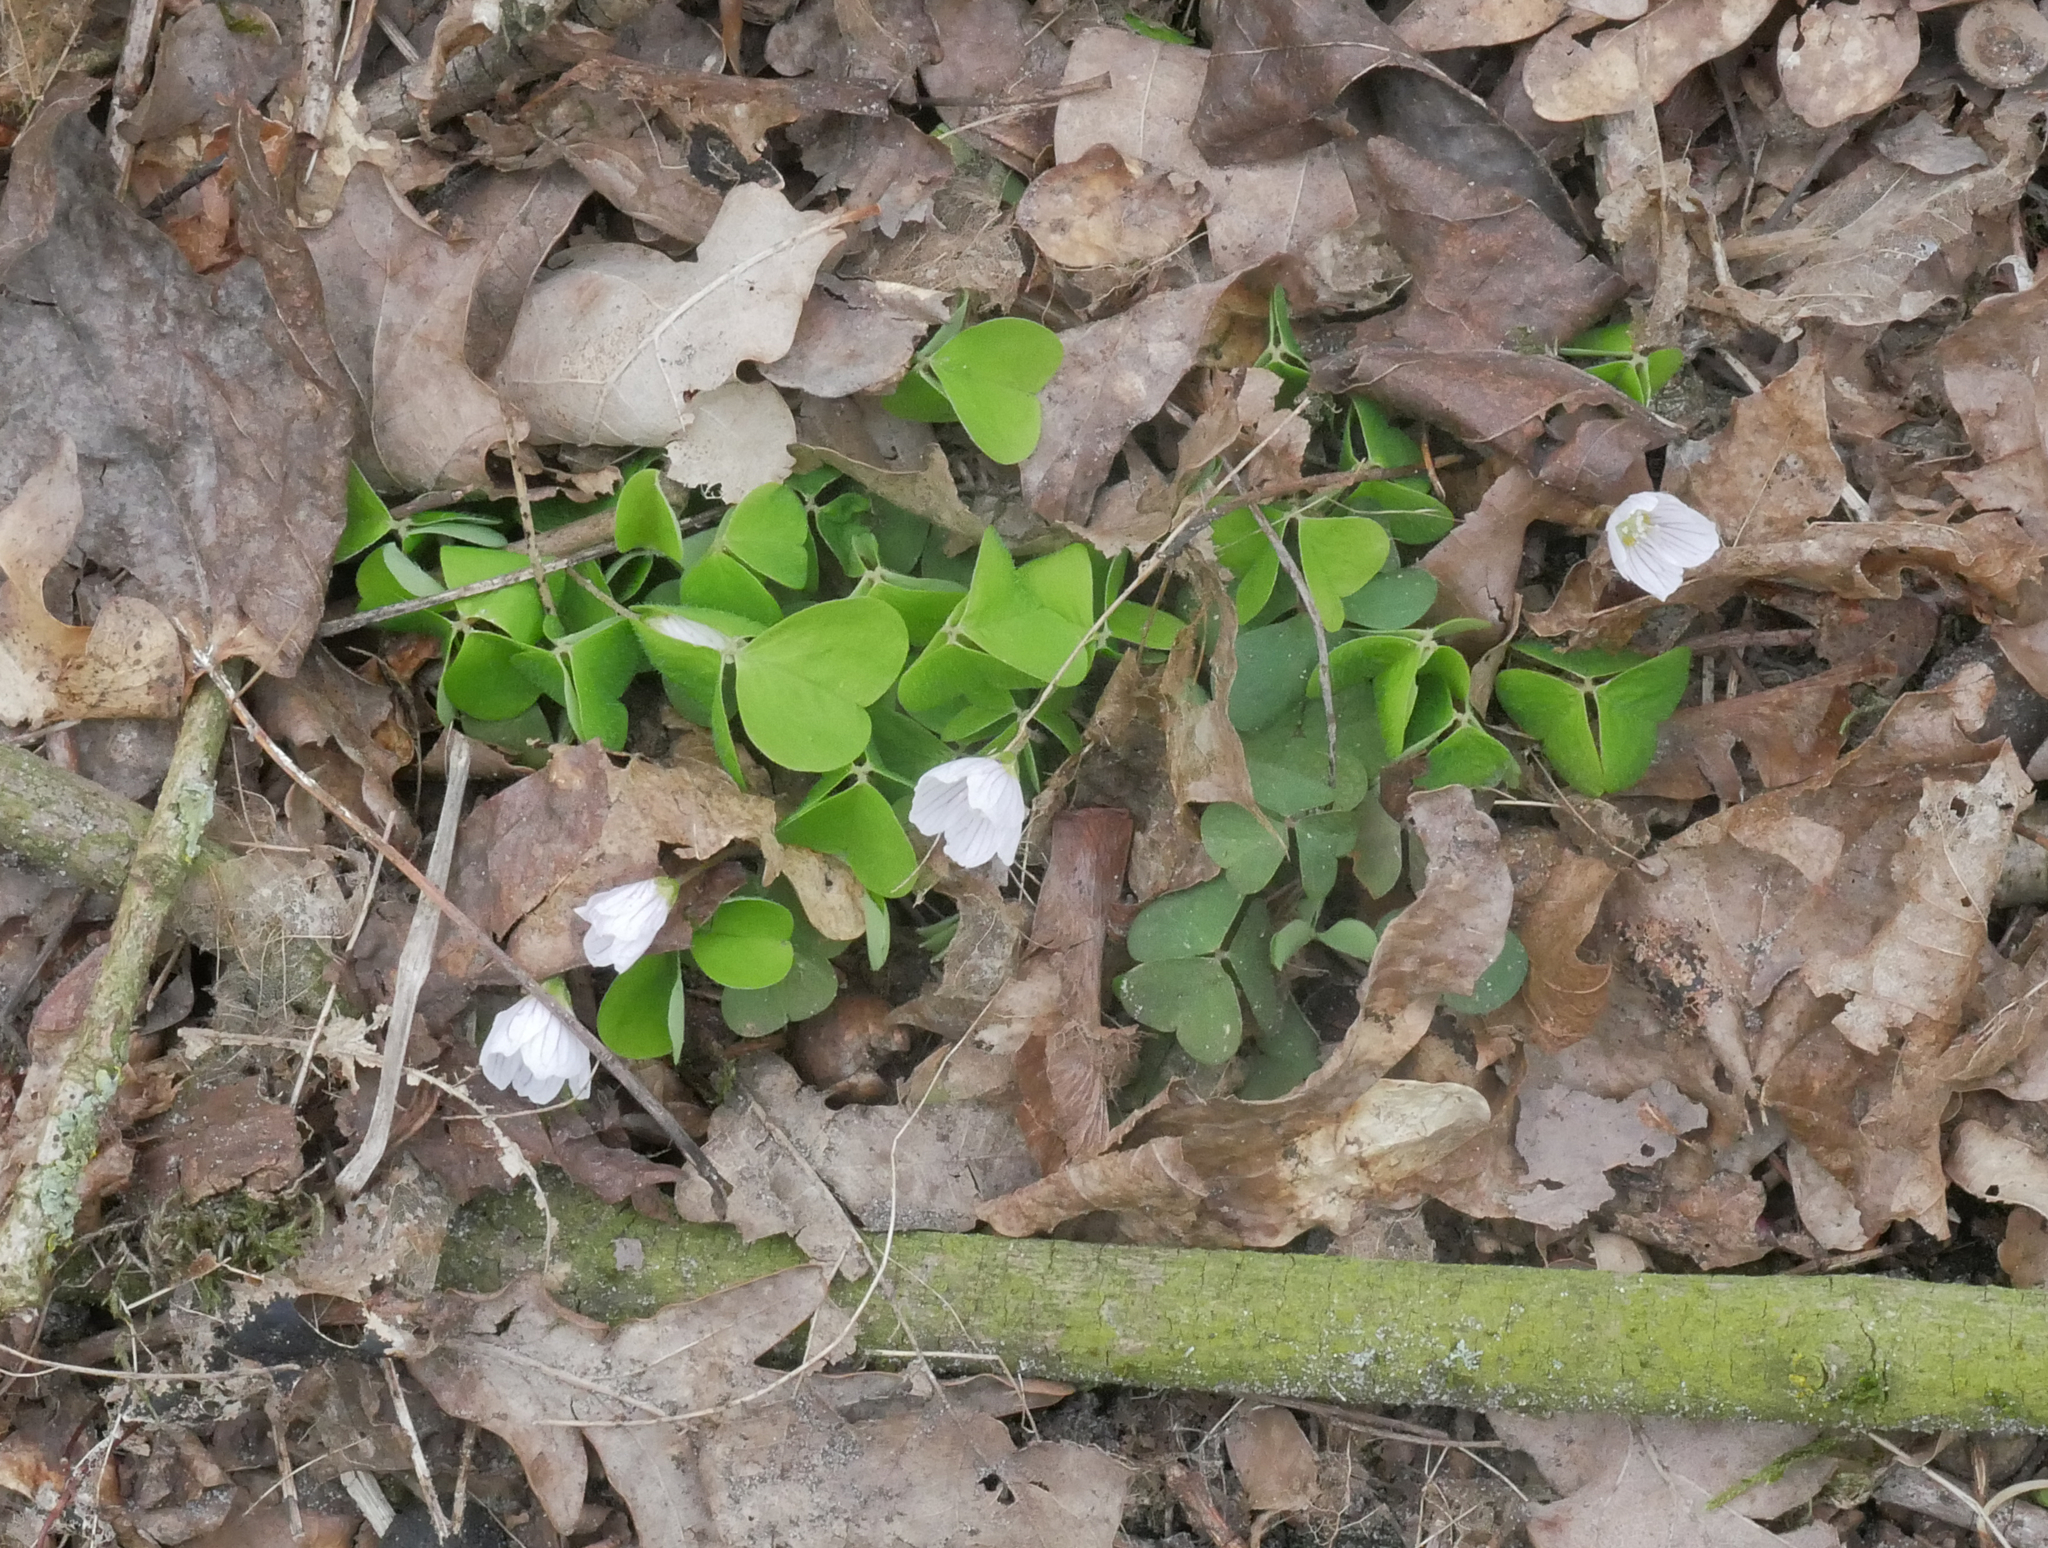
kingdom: Plantae
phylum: Tracheophyta
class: Magnoliopsida
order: Oxalidales
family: Oxalidaceae
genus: Oxalis
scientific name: Oxalis acetosella
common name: Wood-sorrel
